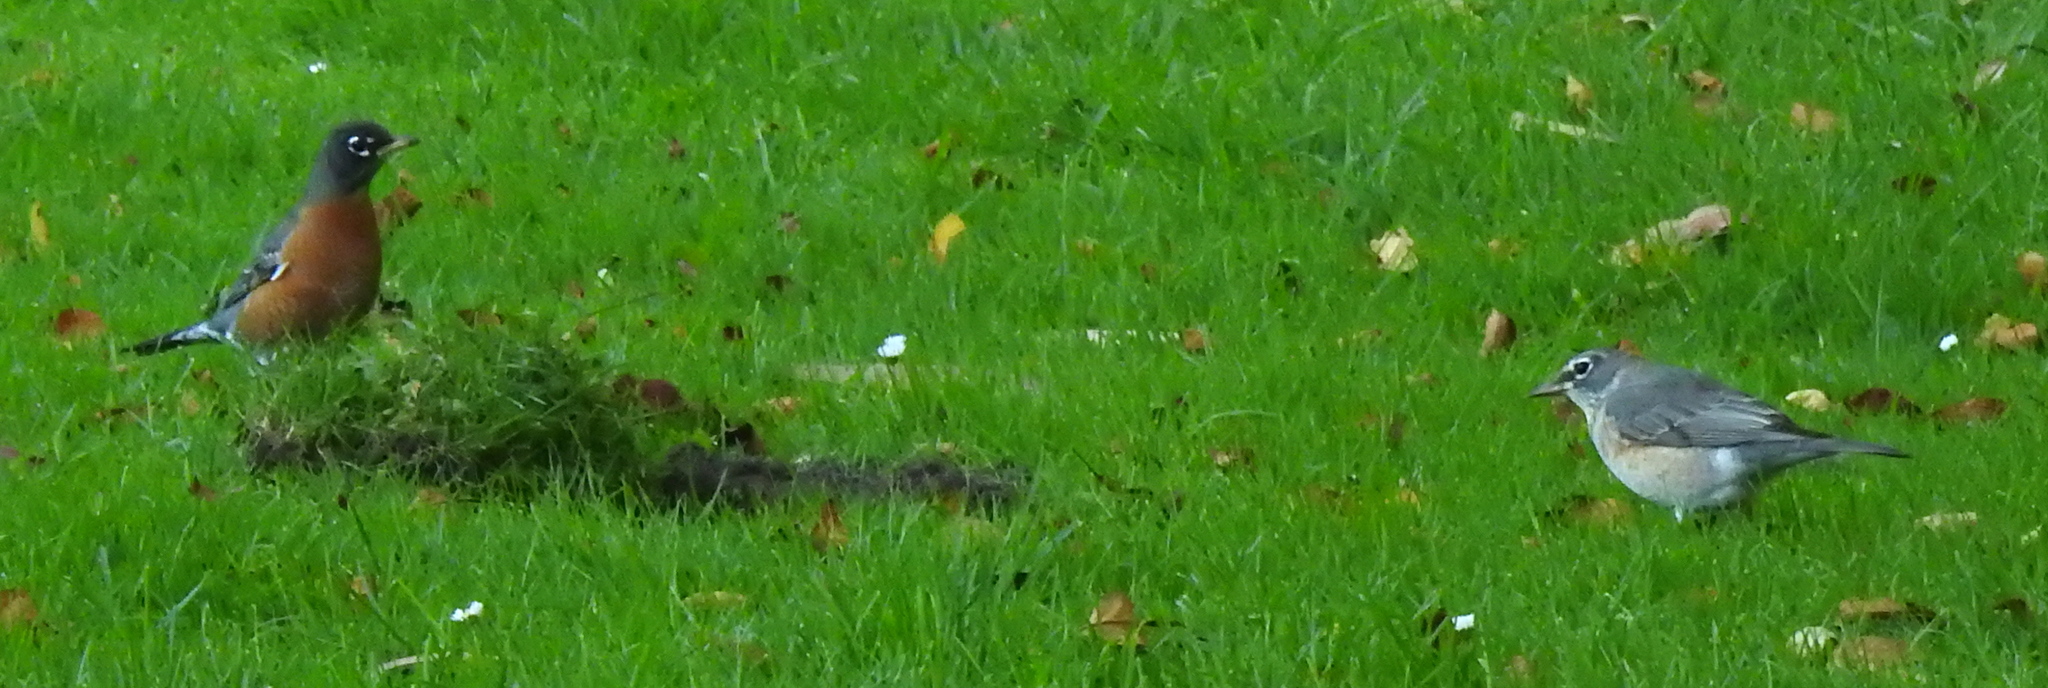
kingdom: Animalia
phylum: Chordata
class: Aves
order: Passeriformes
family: Turdidae
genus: Turdus
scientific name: Turdus migratorius
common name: American robin
